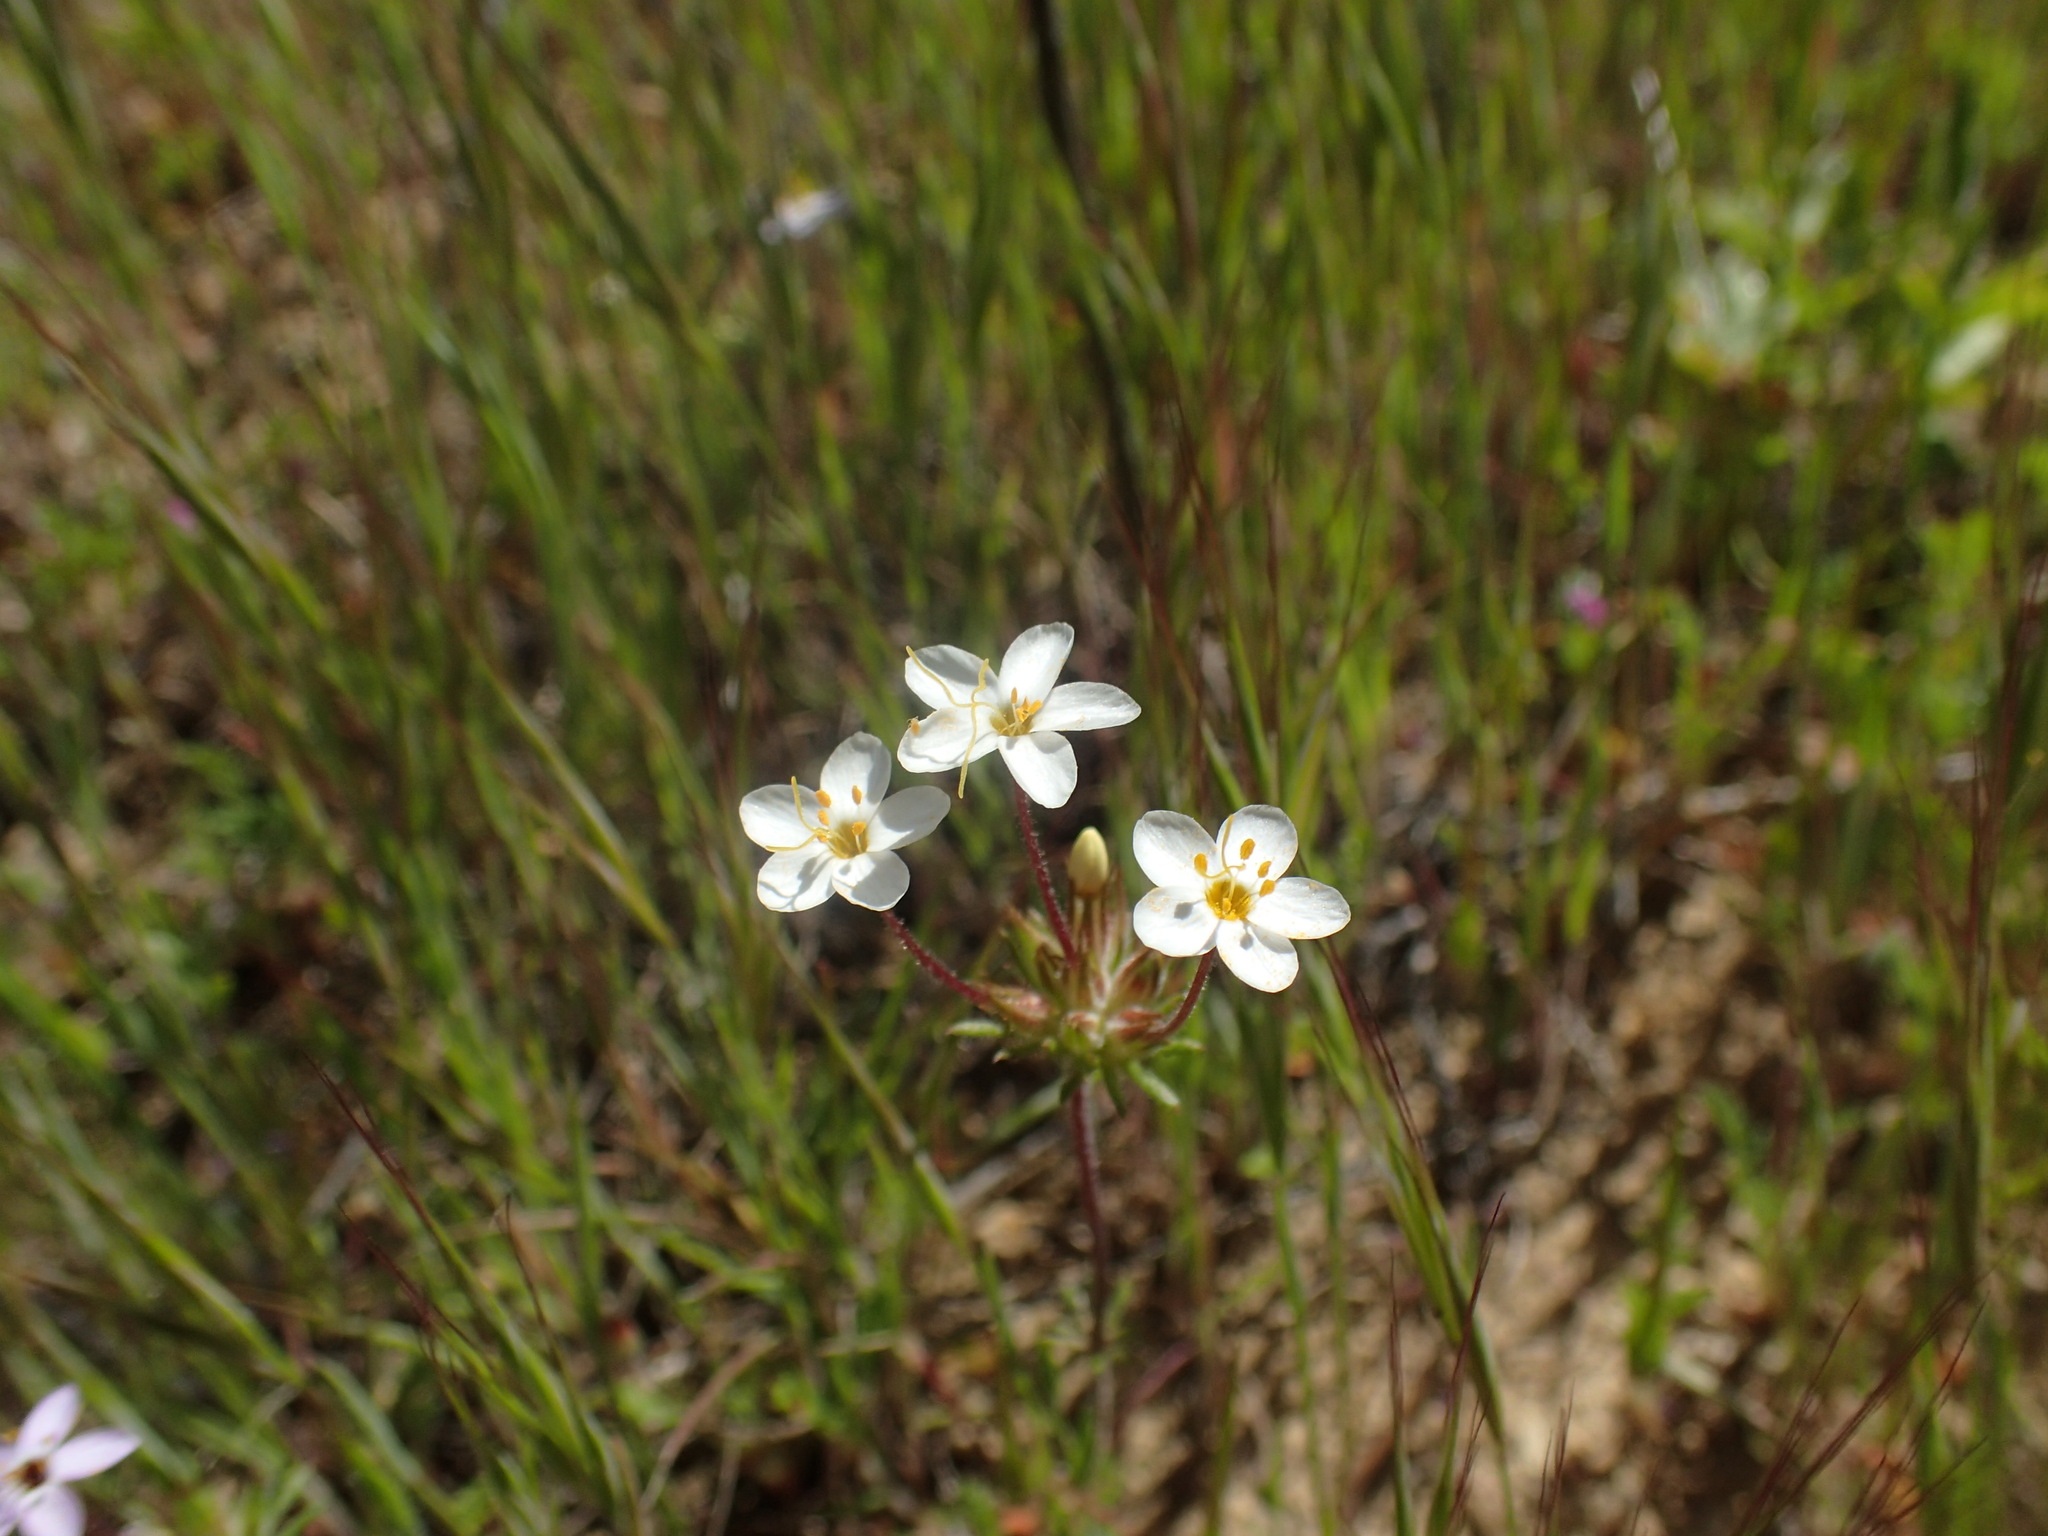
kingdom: Plantae
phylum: Tracheophyta
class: Magnoliopsida
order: Ericales
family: Polemoniaceae
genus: Leptosiphon
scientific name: Leptosiphon parviflorus
